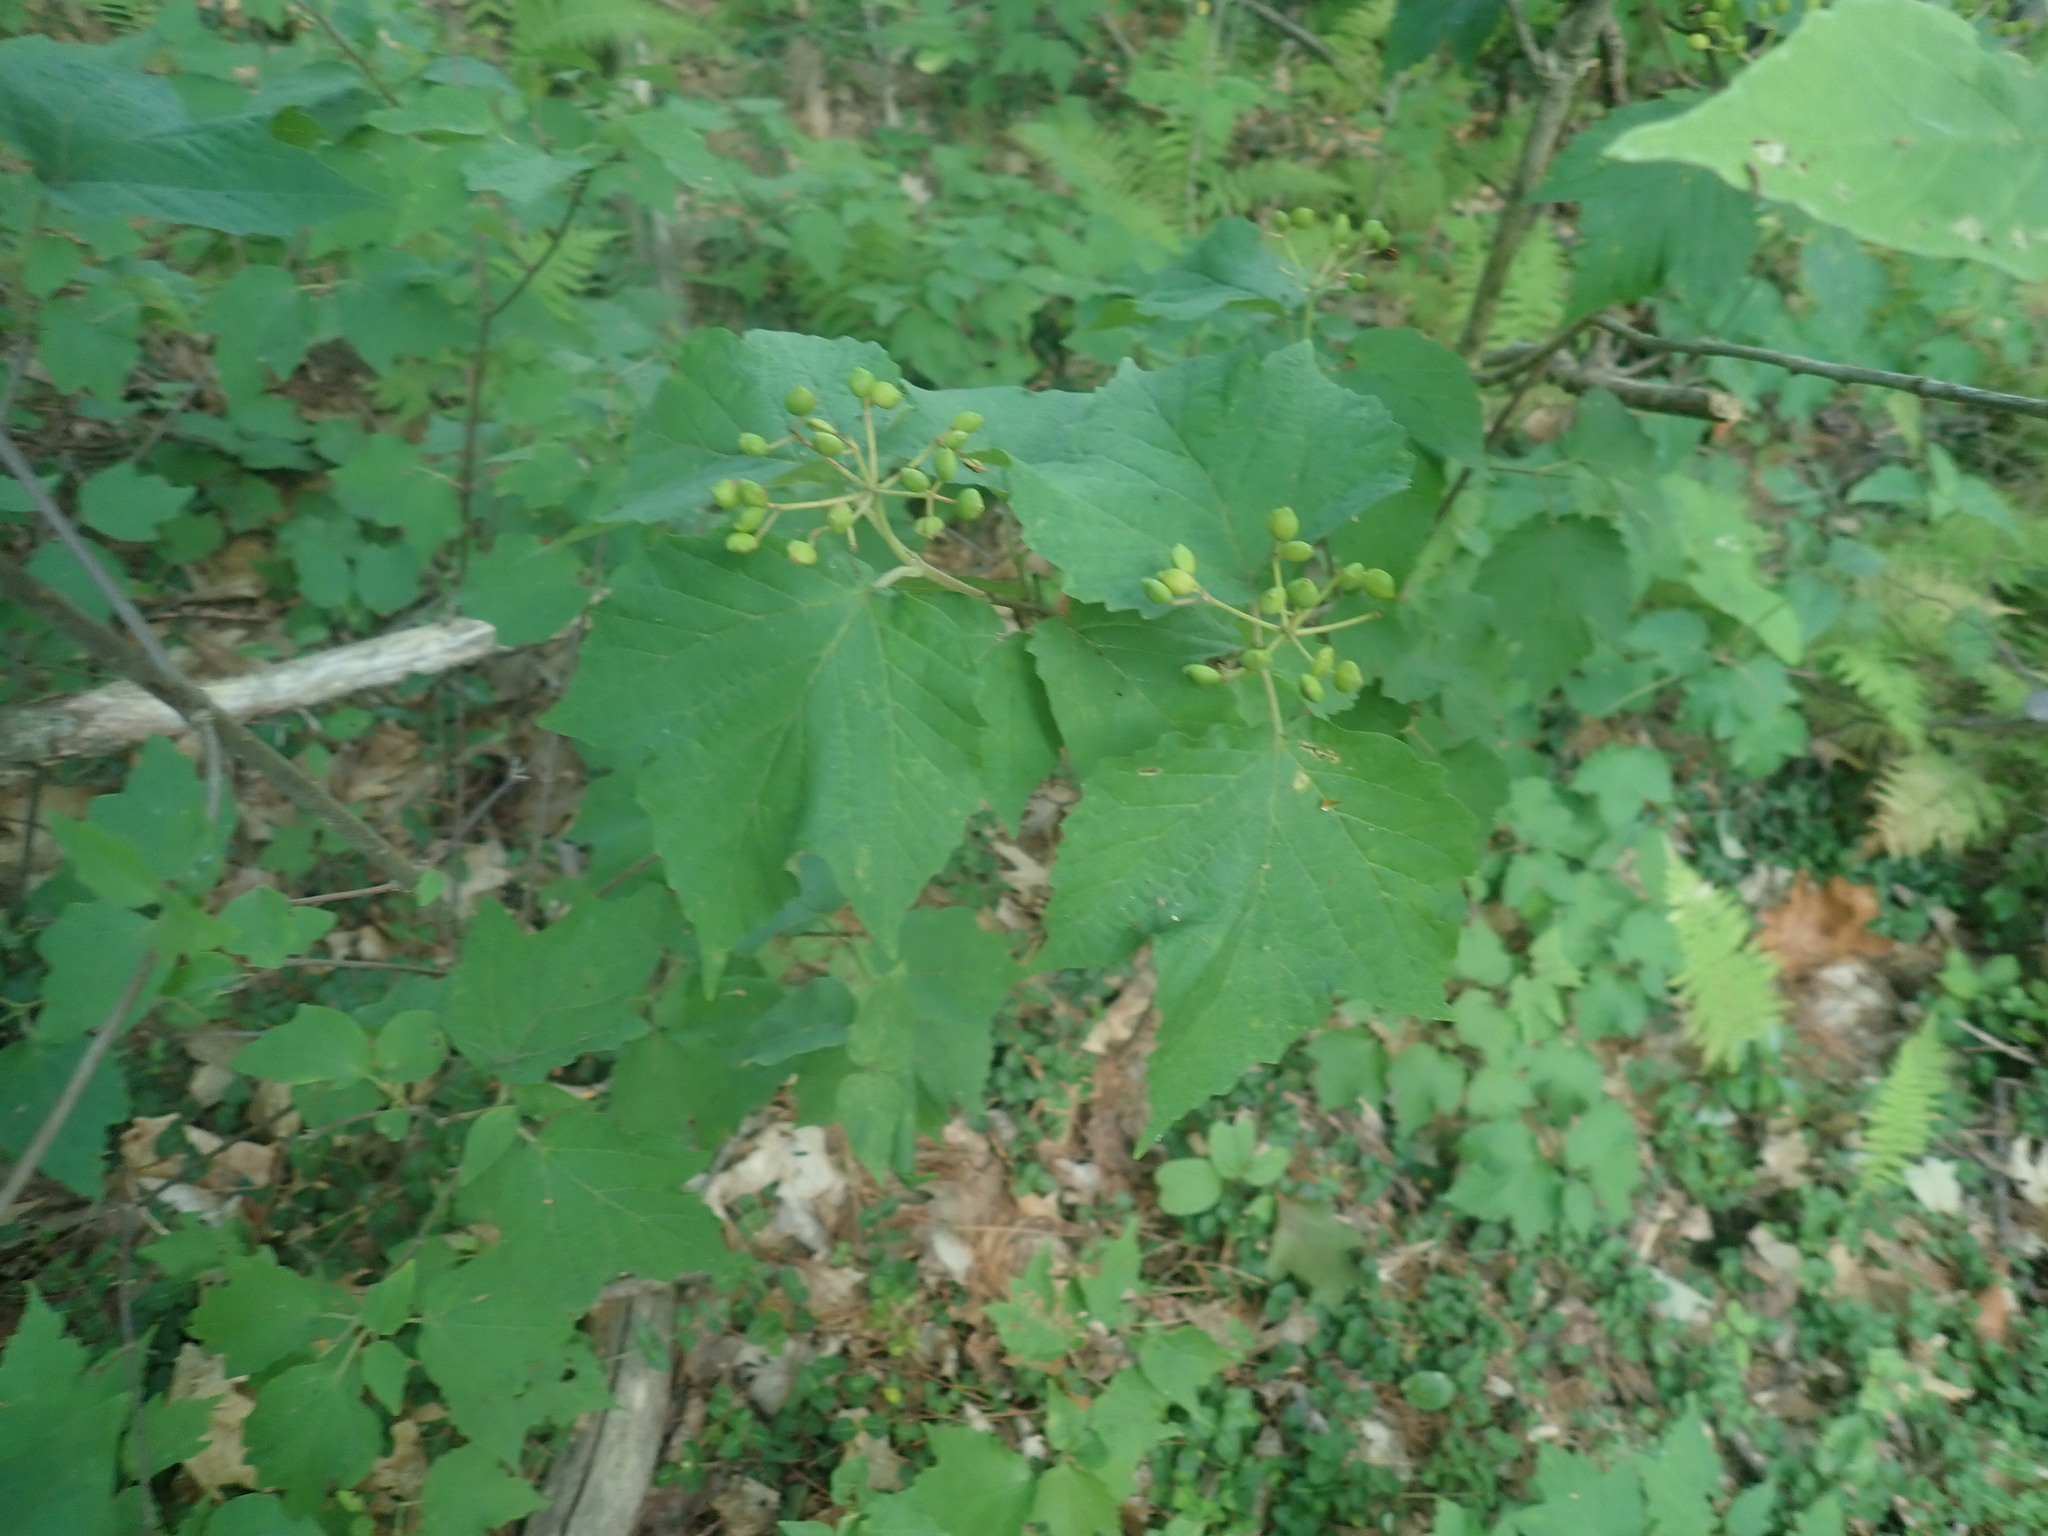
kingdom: Plantae
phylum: Tracheophyta
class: Magnoliopsida
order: Dipsacales
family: Viburnaceae
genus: Viburnum
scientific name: Viburnum acerifolium
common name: Dockmackie
